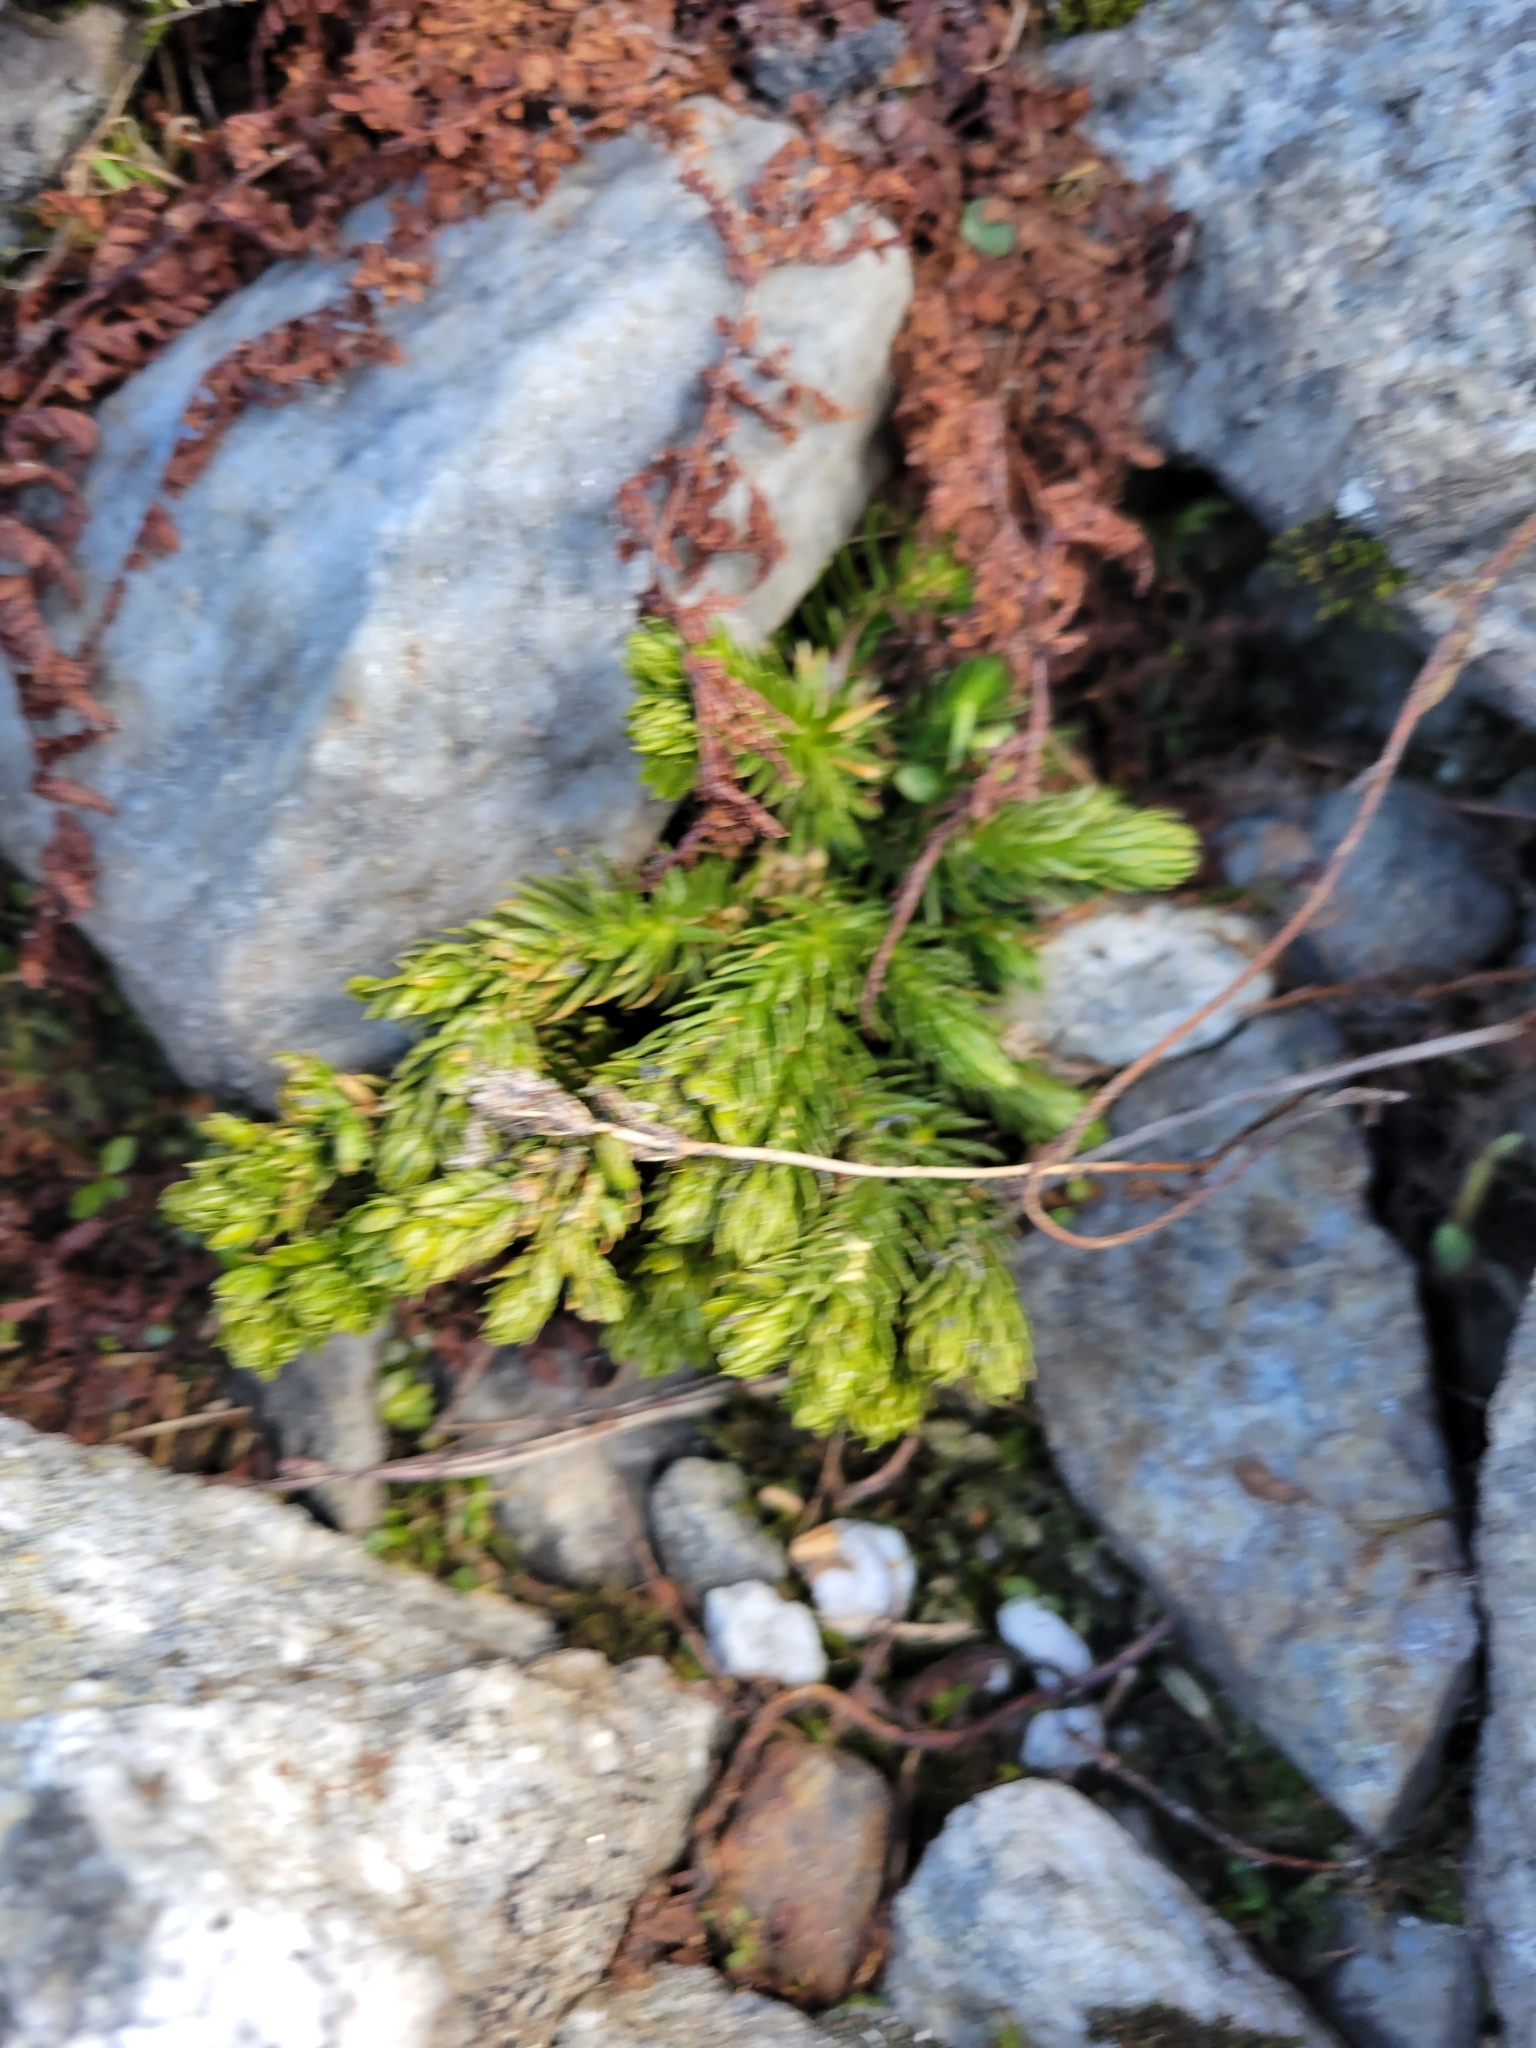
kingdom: Plantae
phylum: Tracheophyta
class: Lycopodiopsida
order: Lycopodiales
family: Lycopodiaceae
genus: Huperzia
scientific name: Huperzia selago
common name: Northern firmoss
